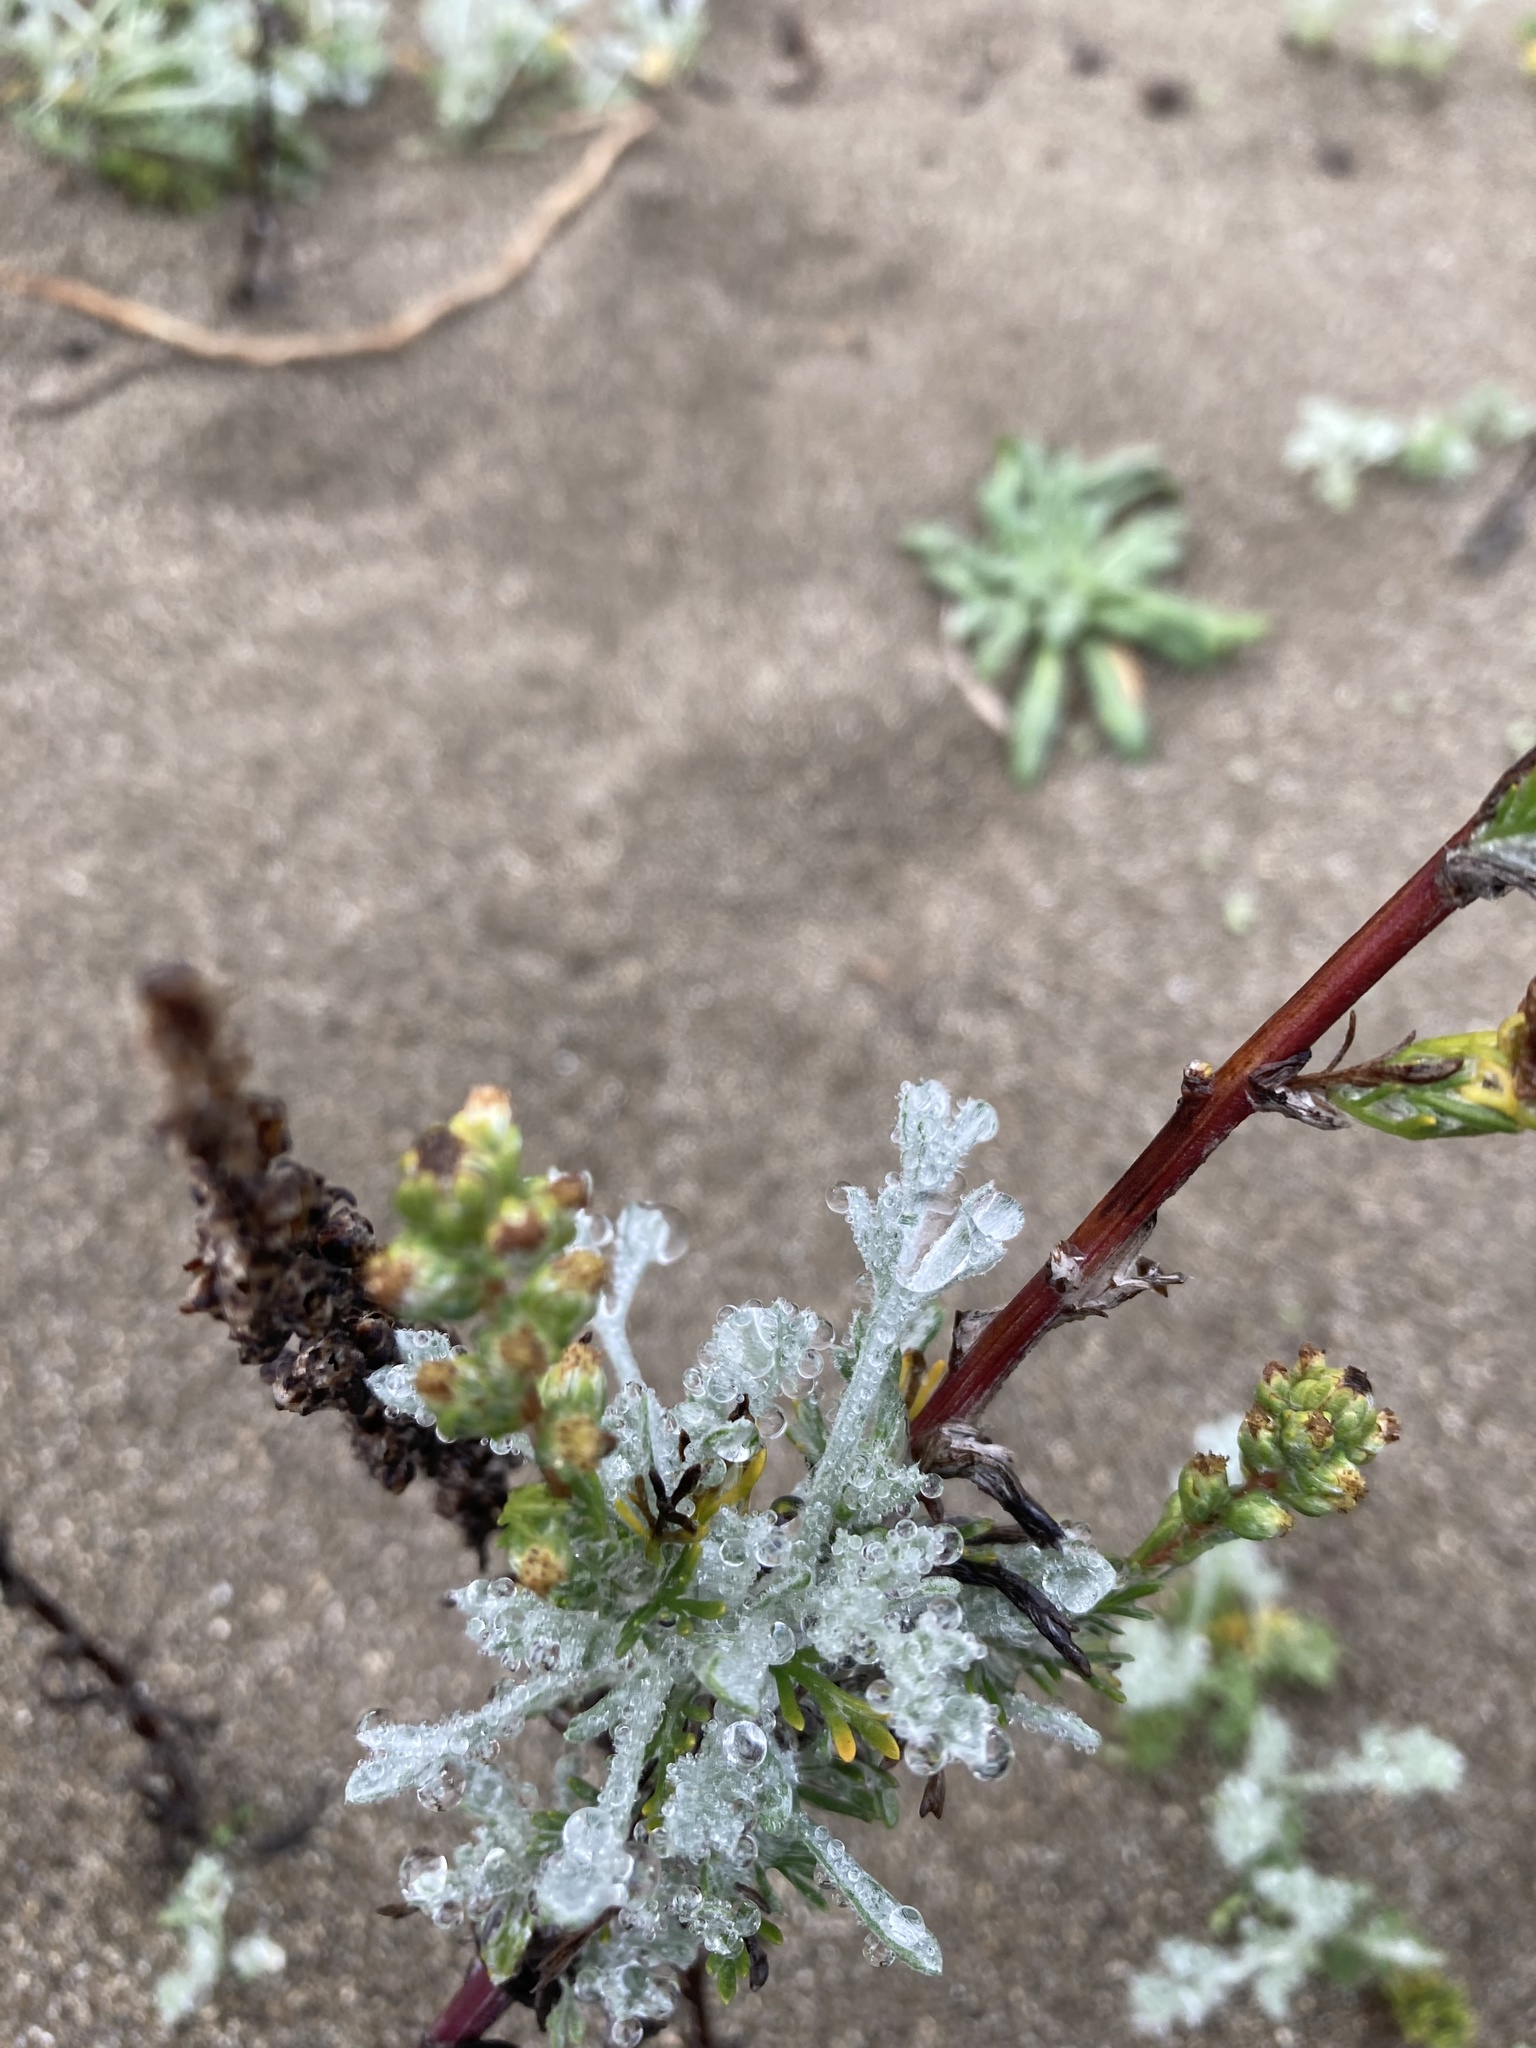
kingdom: Plantae
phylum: Tracheophyta
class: Magnoliopsida
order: Asterales
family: Asteraceae
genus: Artemisia
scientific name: Artemisia pycnocephala
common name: Coastal sagewort
